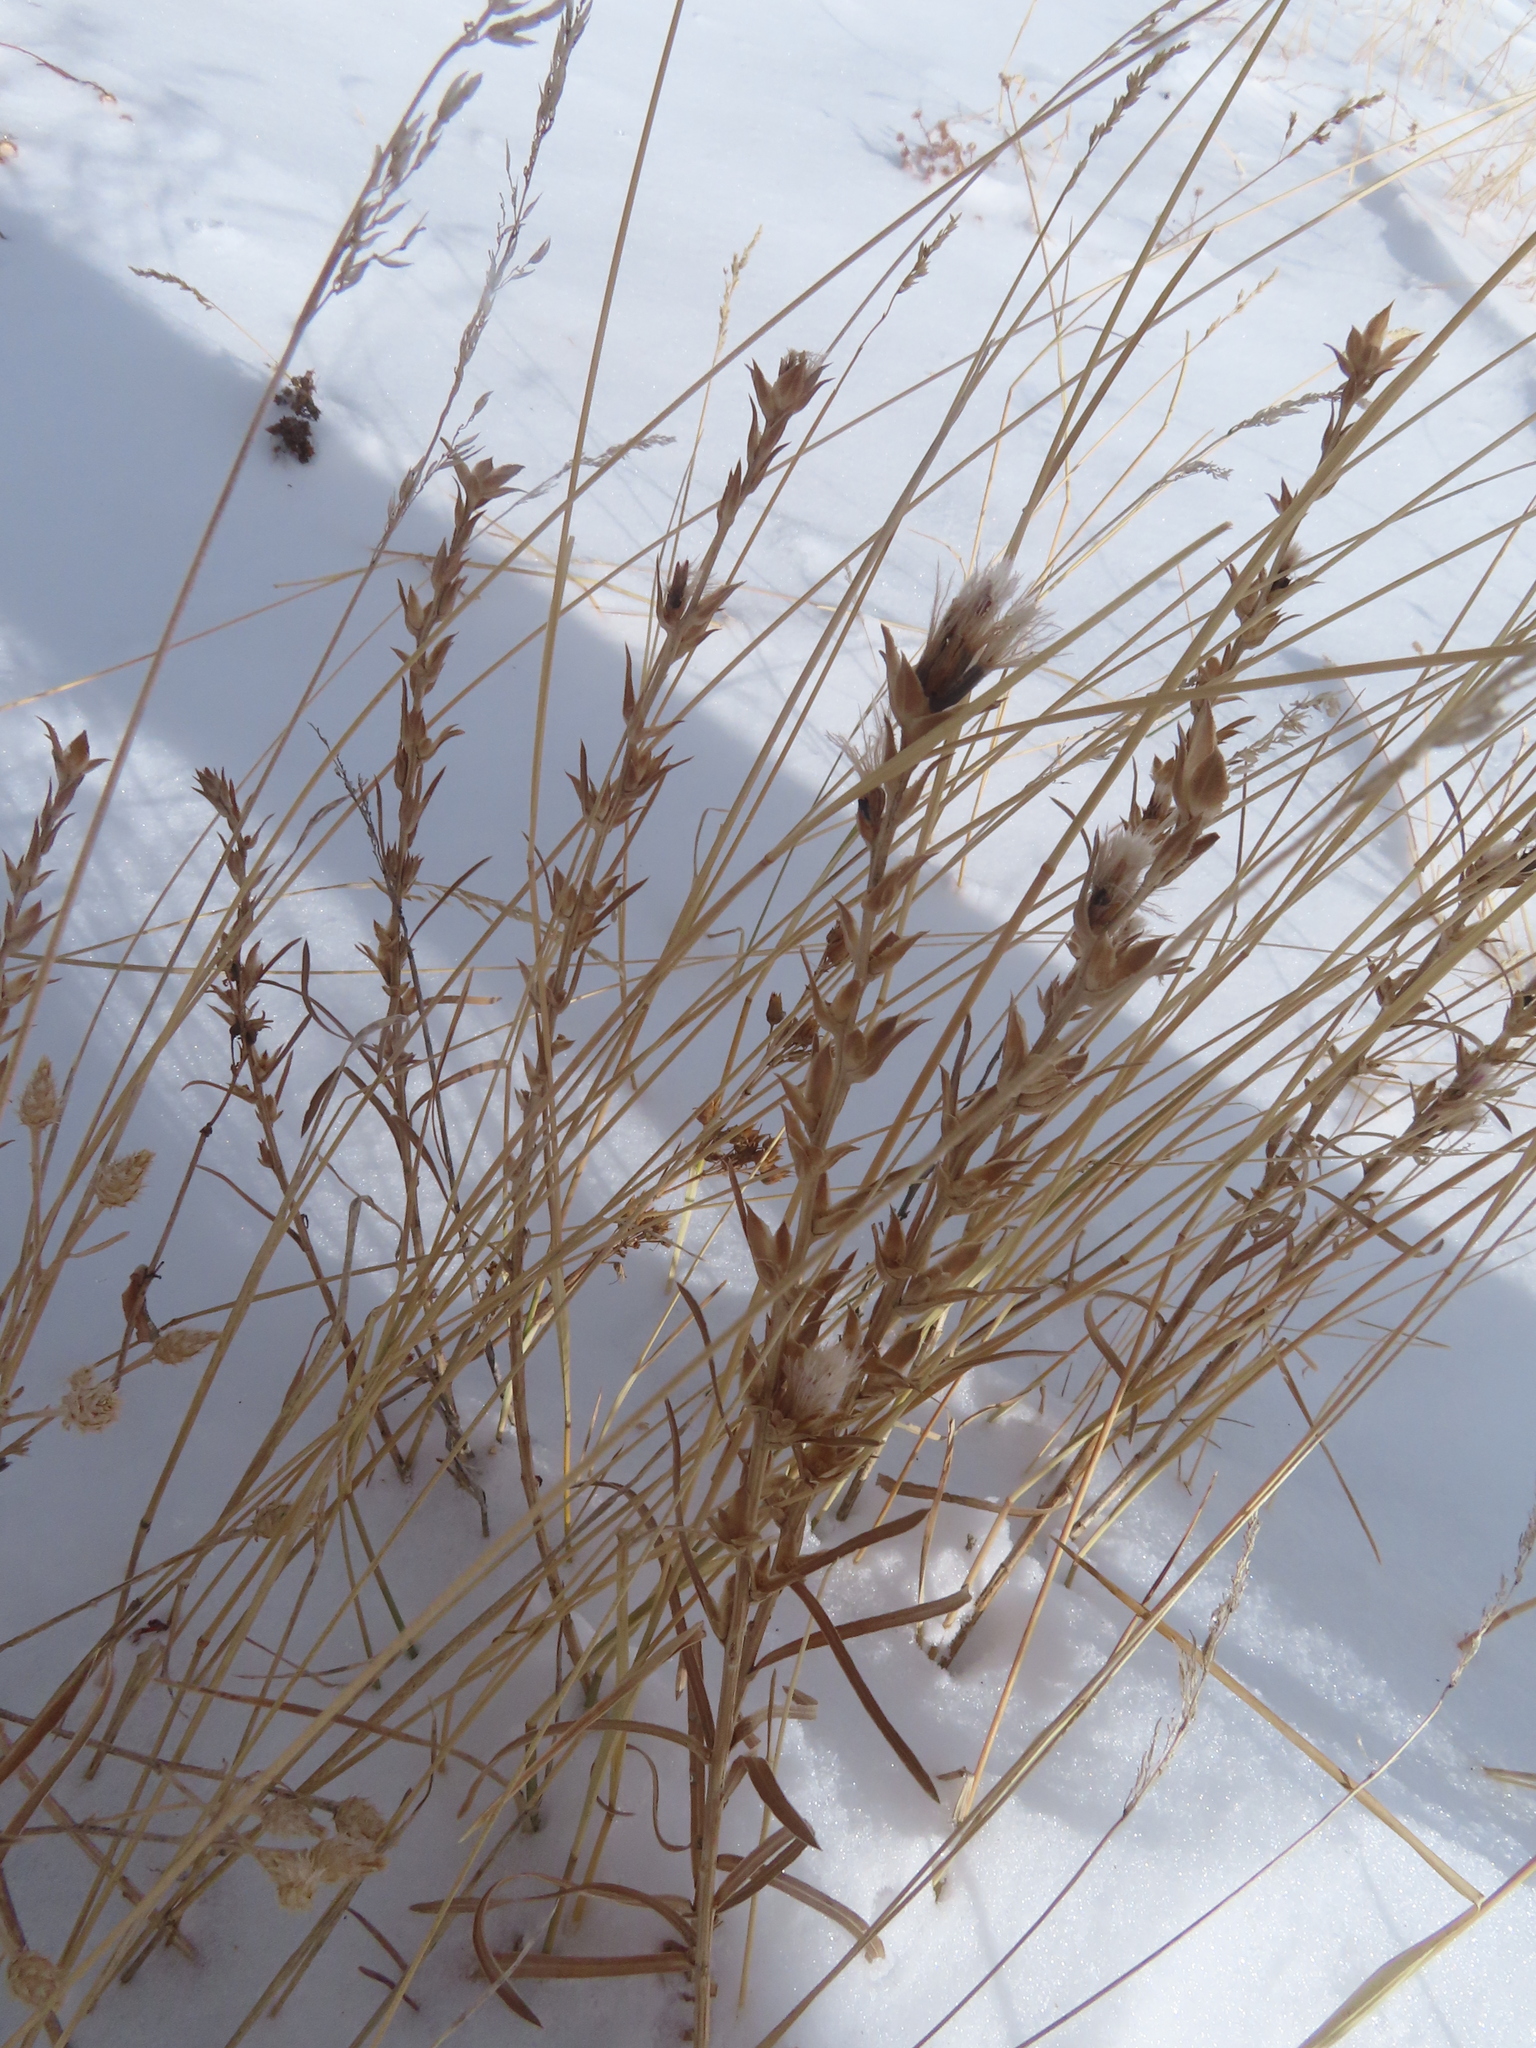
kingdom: Plantae
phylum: Tracheophyta
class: Magnoliopsida
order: Asterales
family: Asteraceae
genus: Liatris
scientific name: Liatris punctata
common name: Dotted gayfeather
